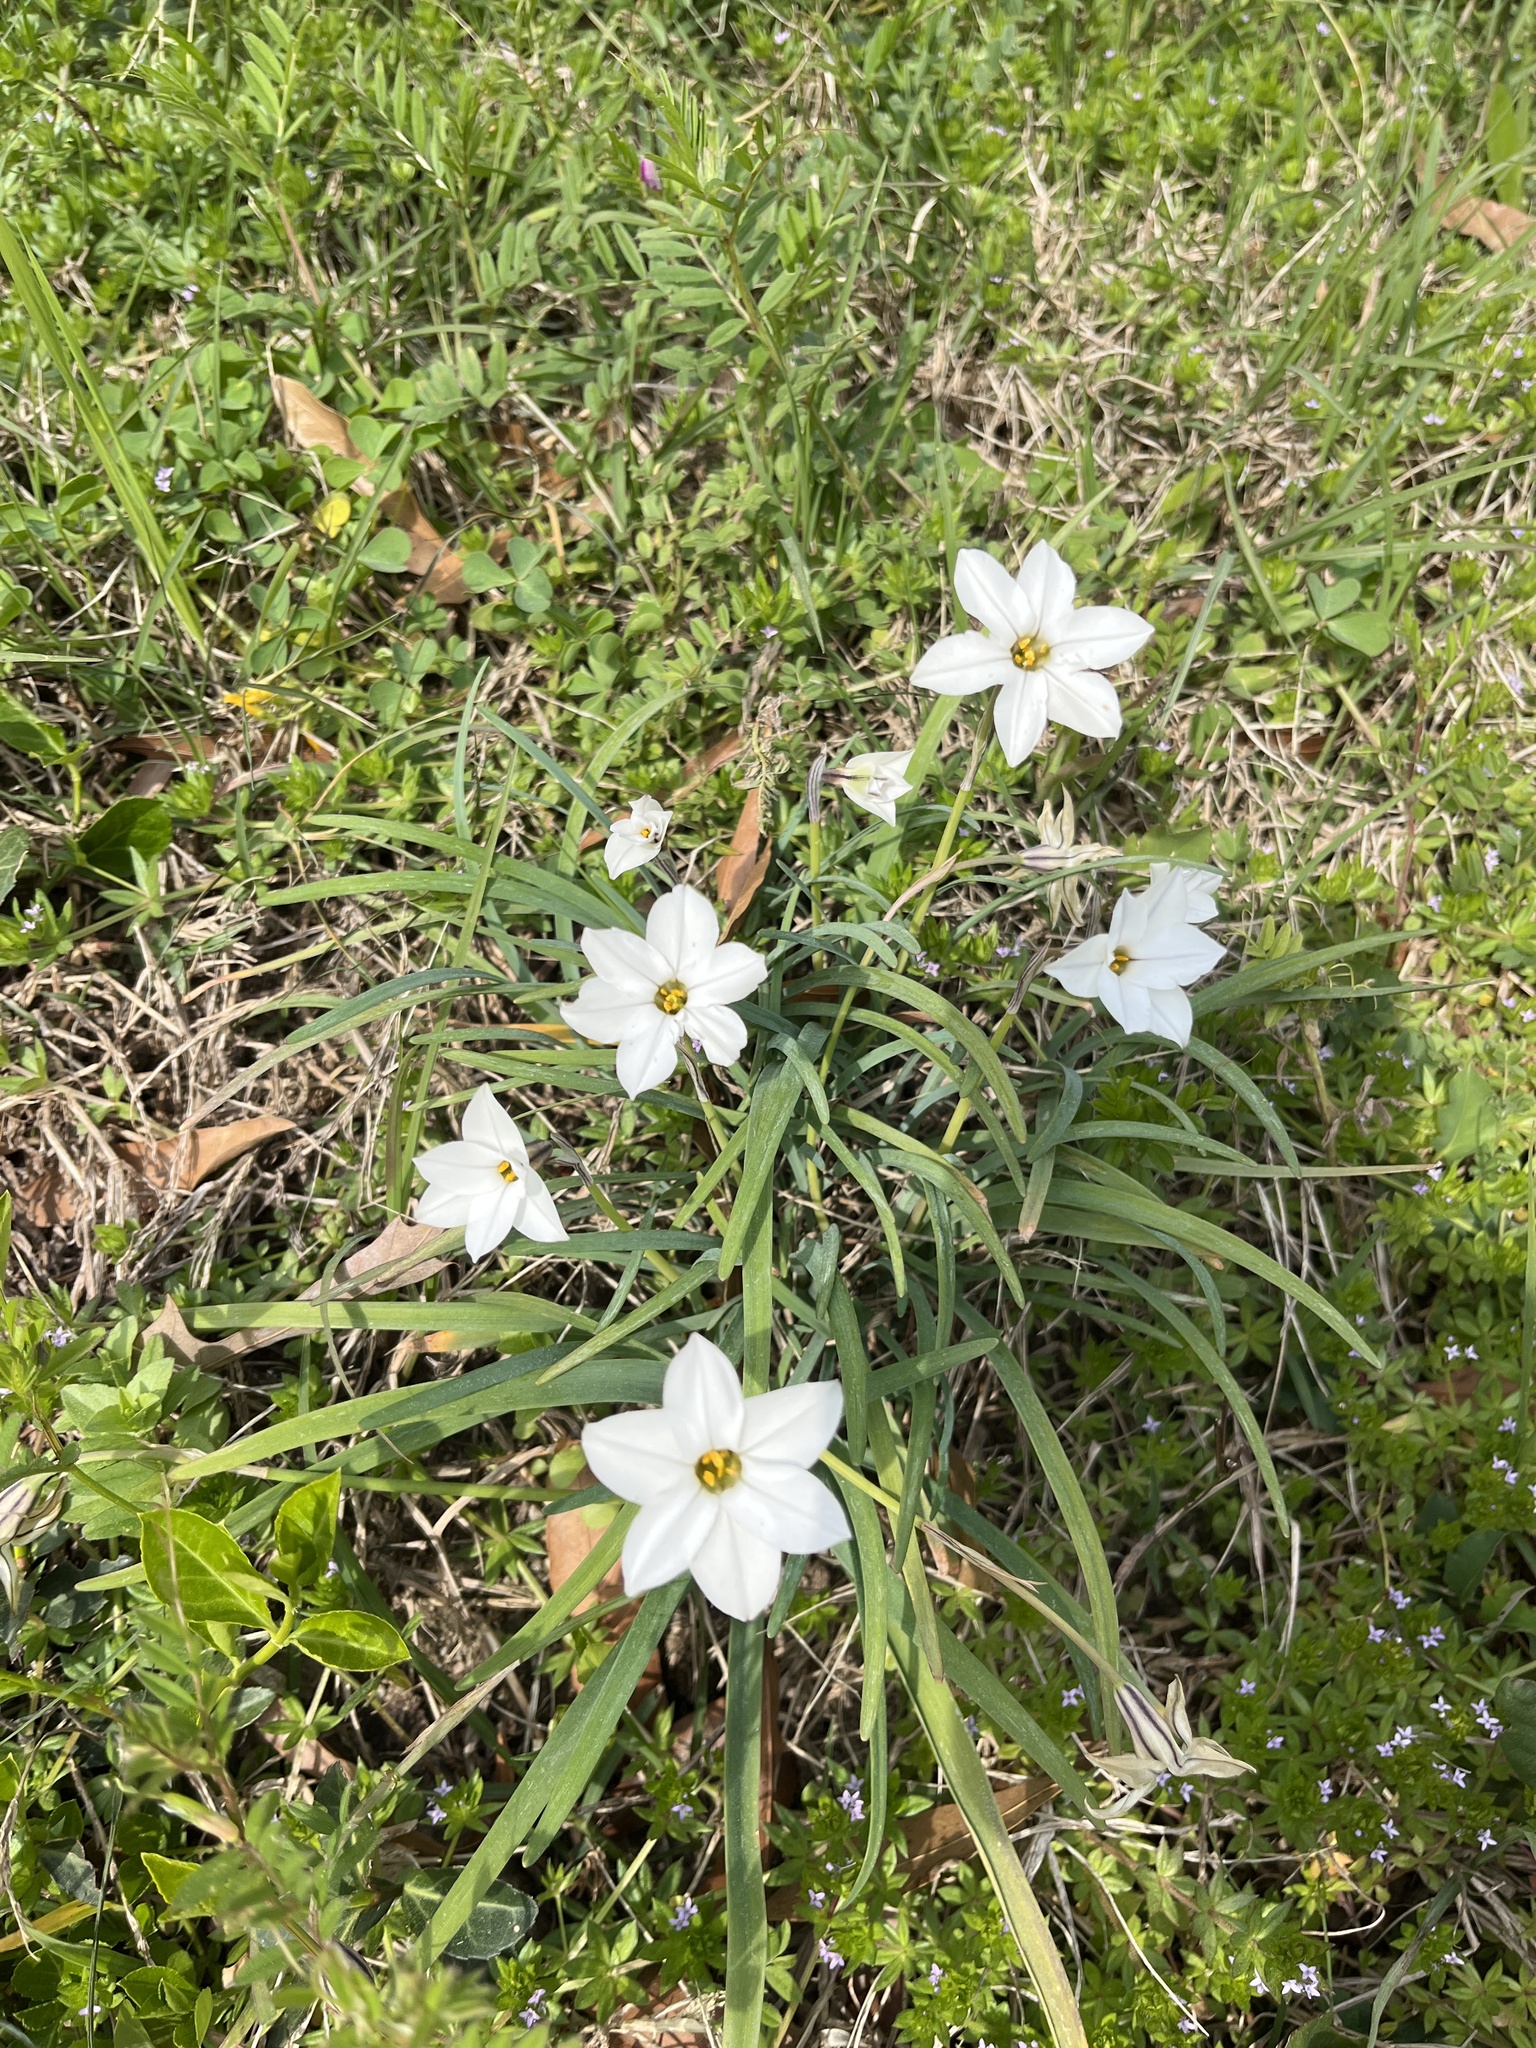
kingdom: Plantae
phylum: Tracheophyta
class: Liliopsida
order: Asparagales
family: Amaryllidaceae
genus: Ipheion
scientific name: Ipheion uniflorum
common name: Spring starflower
